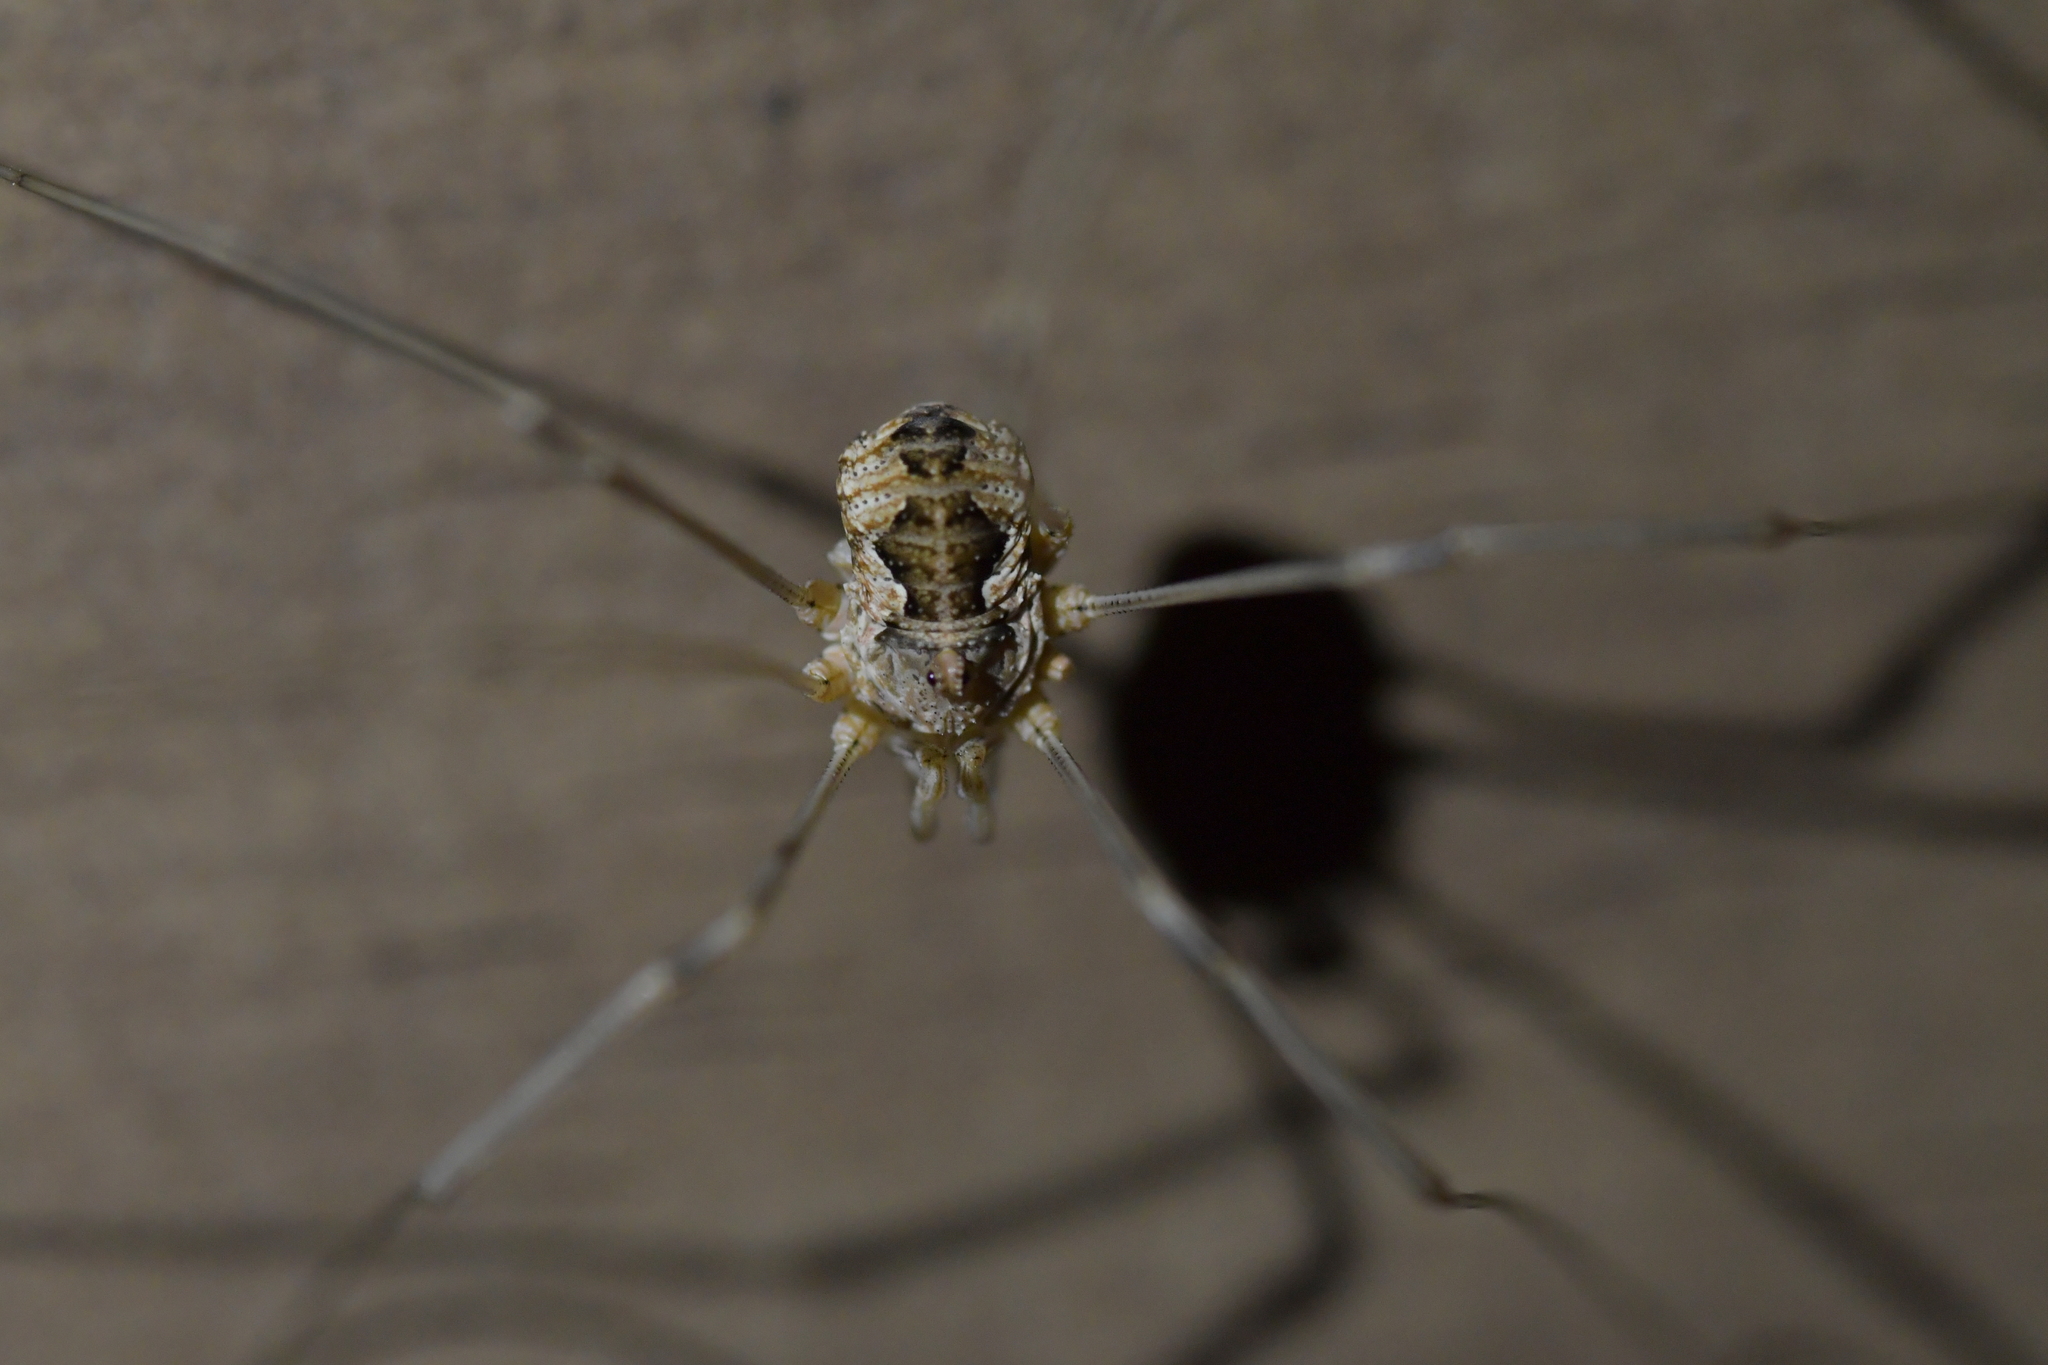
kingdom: Animalia
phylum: Arthropoda
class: Arachnida
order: Opiliones
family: Phalangiidae
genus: Phalangium
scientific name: Phalangium opilio
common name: Daddy longleg
